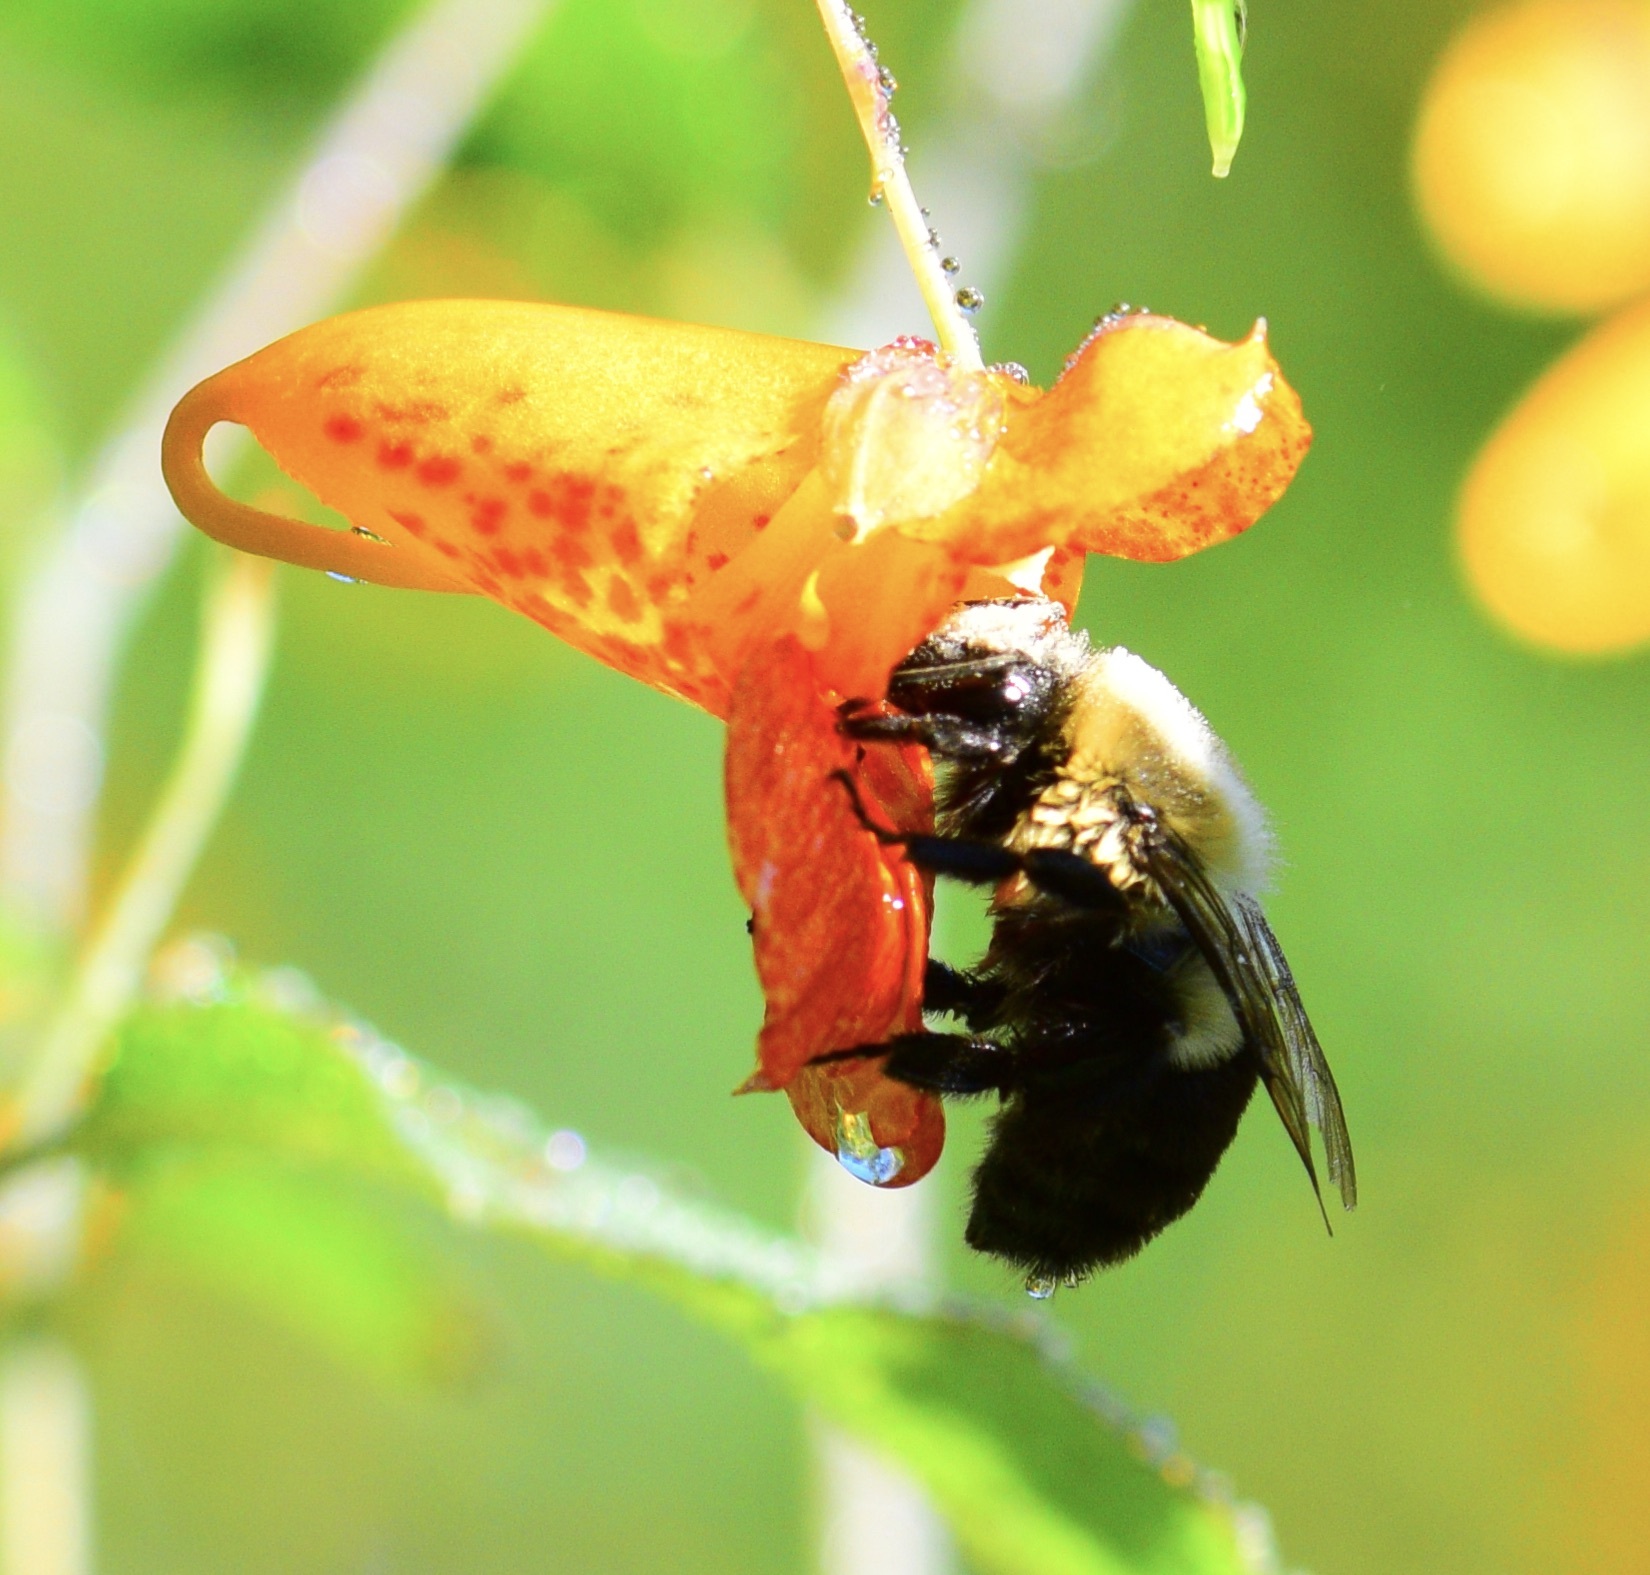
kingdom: Animalia
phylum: Arthropoda
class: Insecta
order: Hymenoptera
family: Apidae
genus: Bombus
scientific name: Bombus impatiens
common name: Common eastern bumble bee
